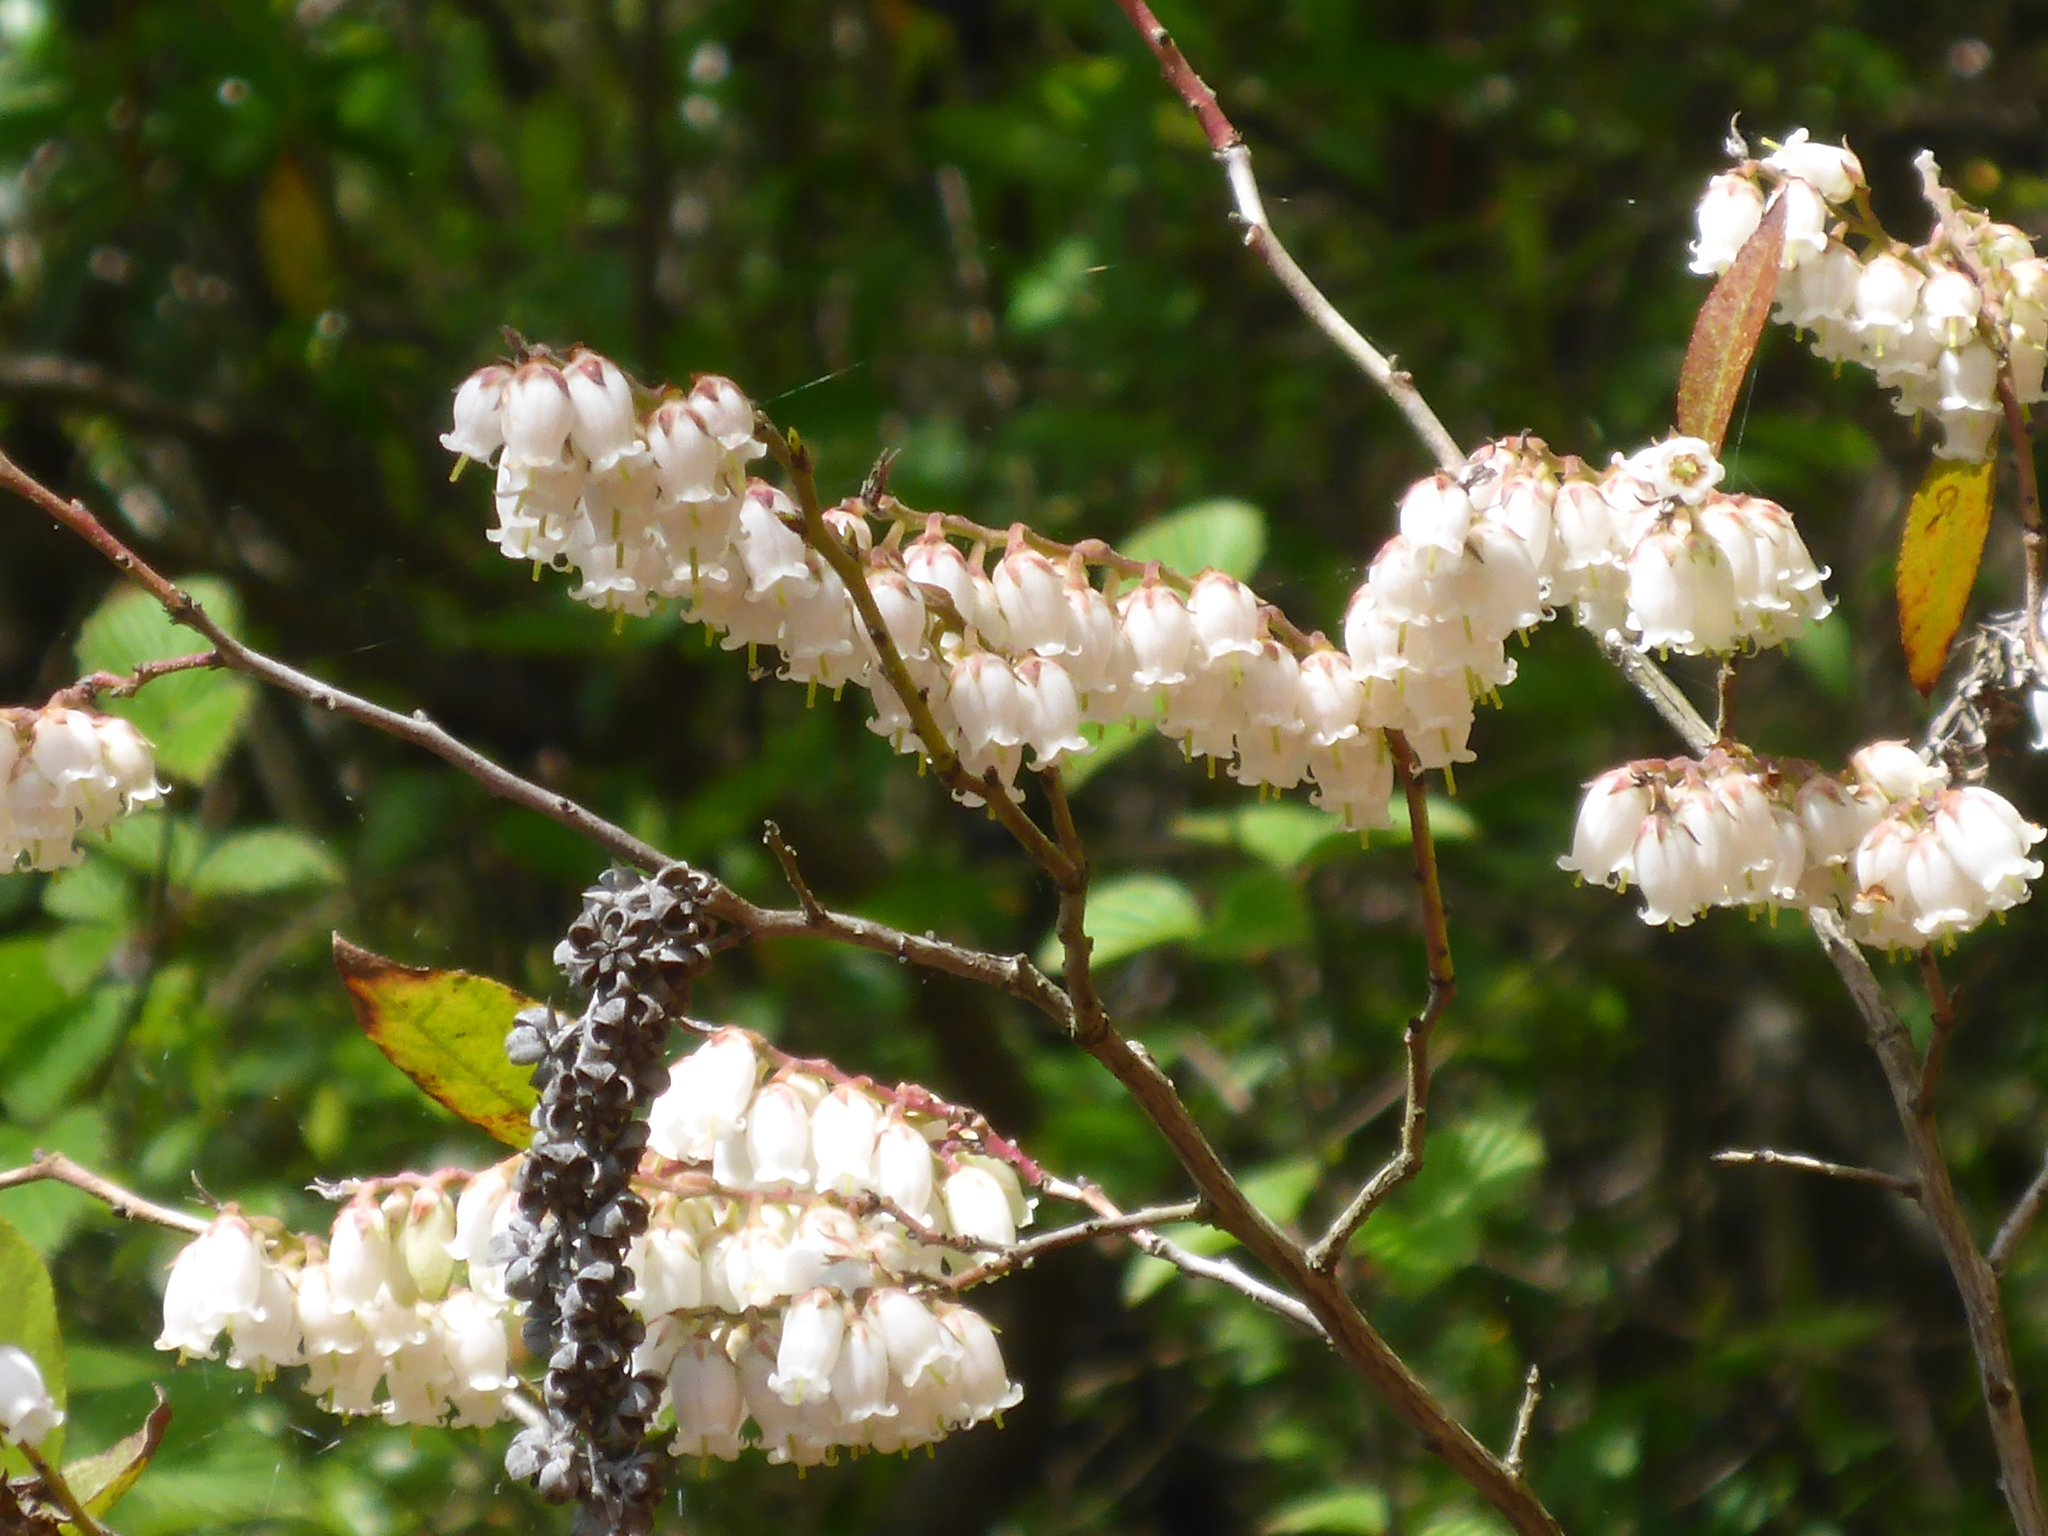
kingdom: Plantae
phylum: Tracheophyta
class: Magnoliopsida
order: Ericales
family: Ericaceae
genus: Eubotrys
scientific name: Eubotrys racemosa
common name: Fetterbush
